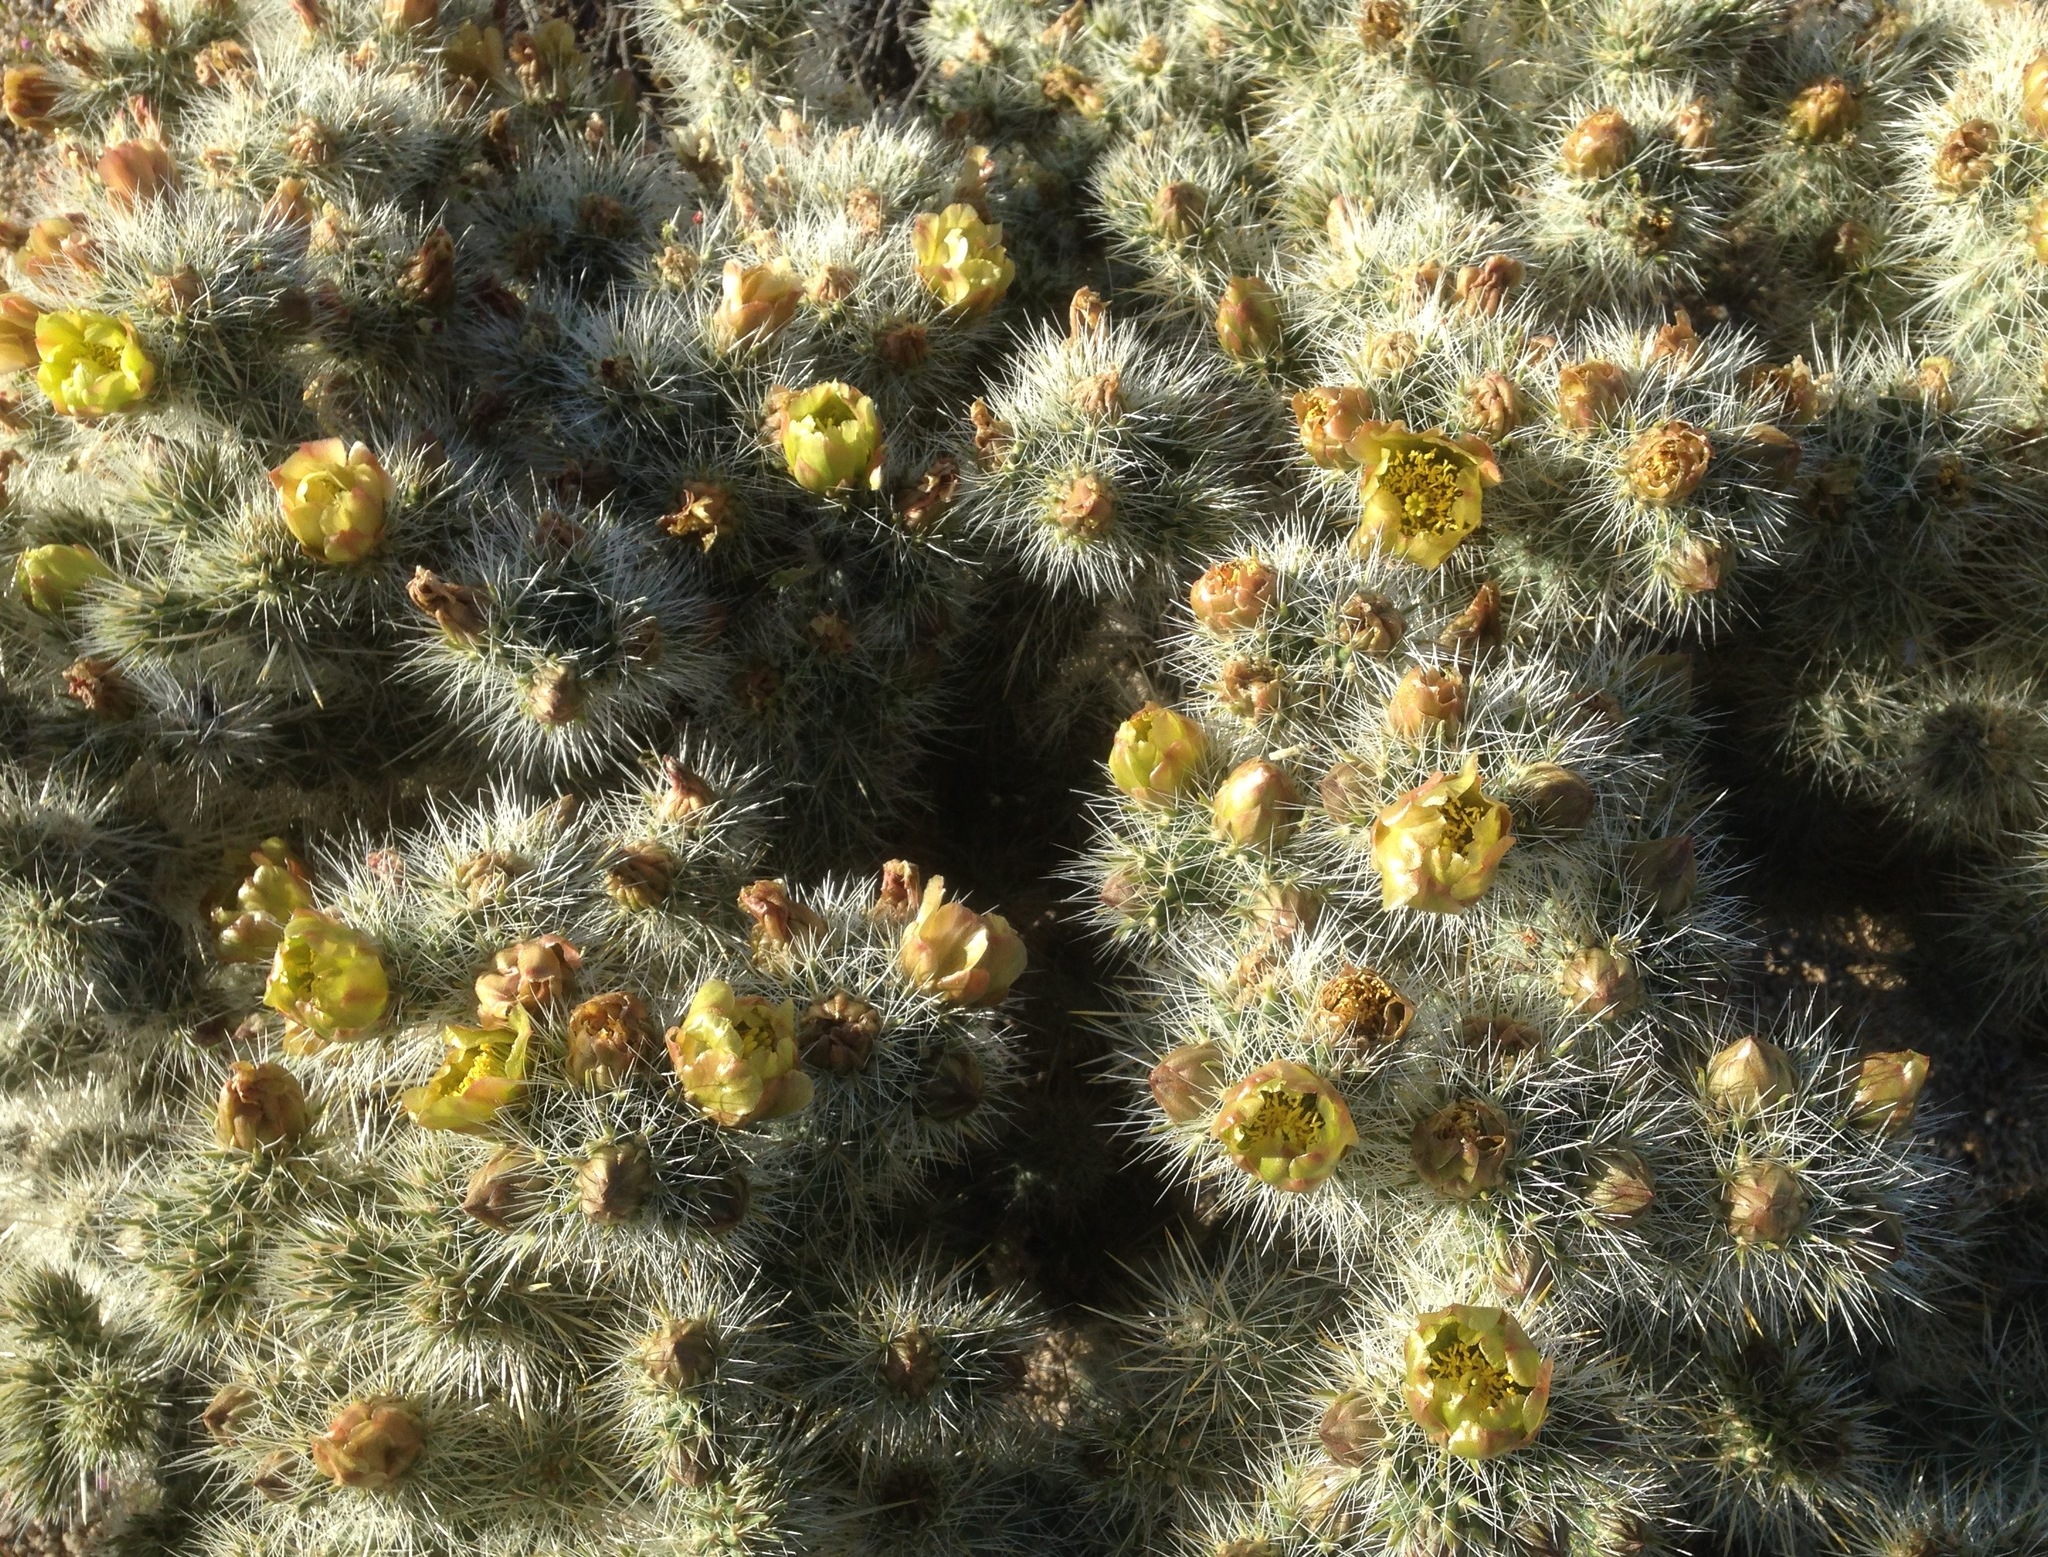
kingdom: Plantae
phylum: Tracheophyta
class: Magnoliopsida
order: Caryophyllales
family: Cactaceae
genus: Cylindropuntia
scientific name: Cylindropuntia echinocarpa
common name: Ground cholla
